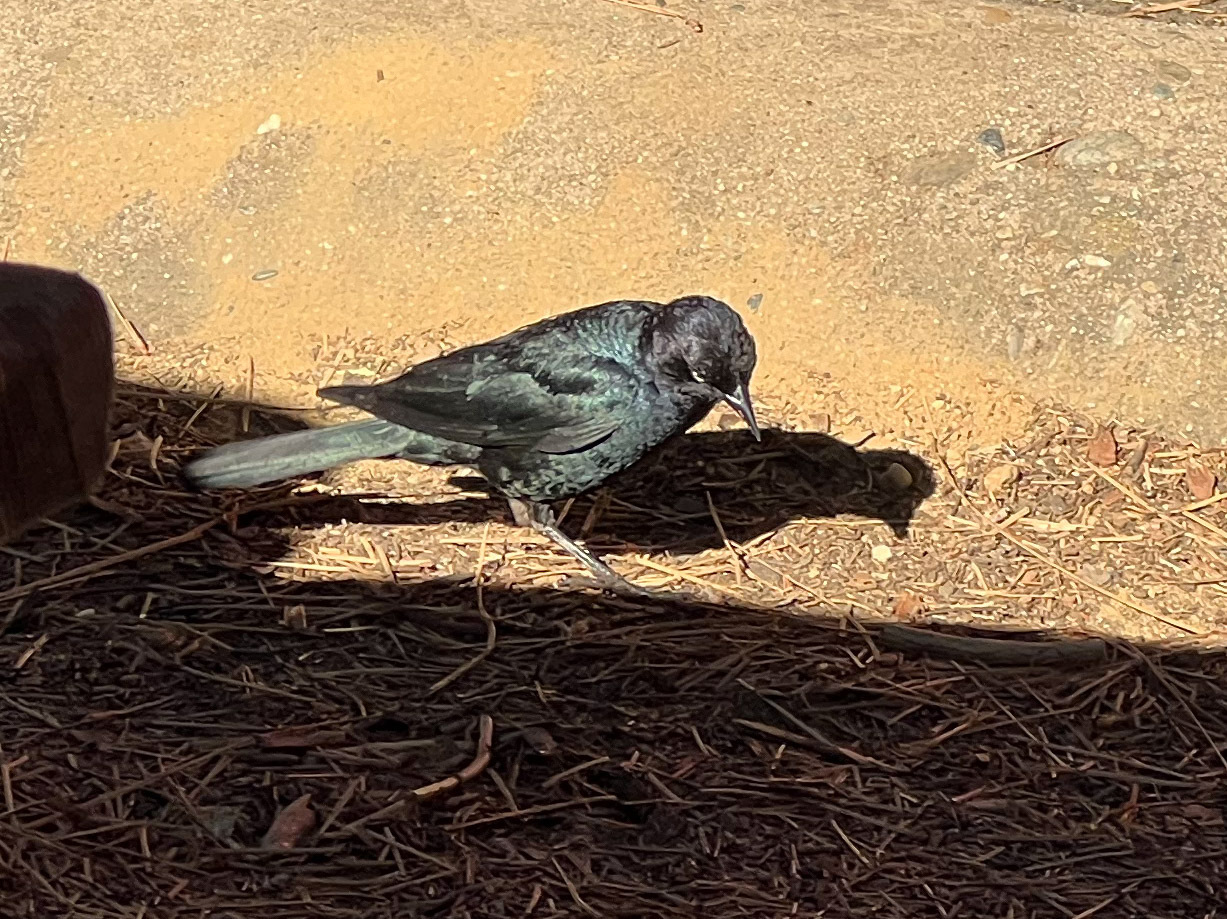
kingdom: Animalia
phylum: Chordata
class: Aves
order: Passeriformes
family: Icteridae
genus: Euphagus
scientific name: Euphagus cyanocephalus
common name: Brewer's blackbird
